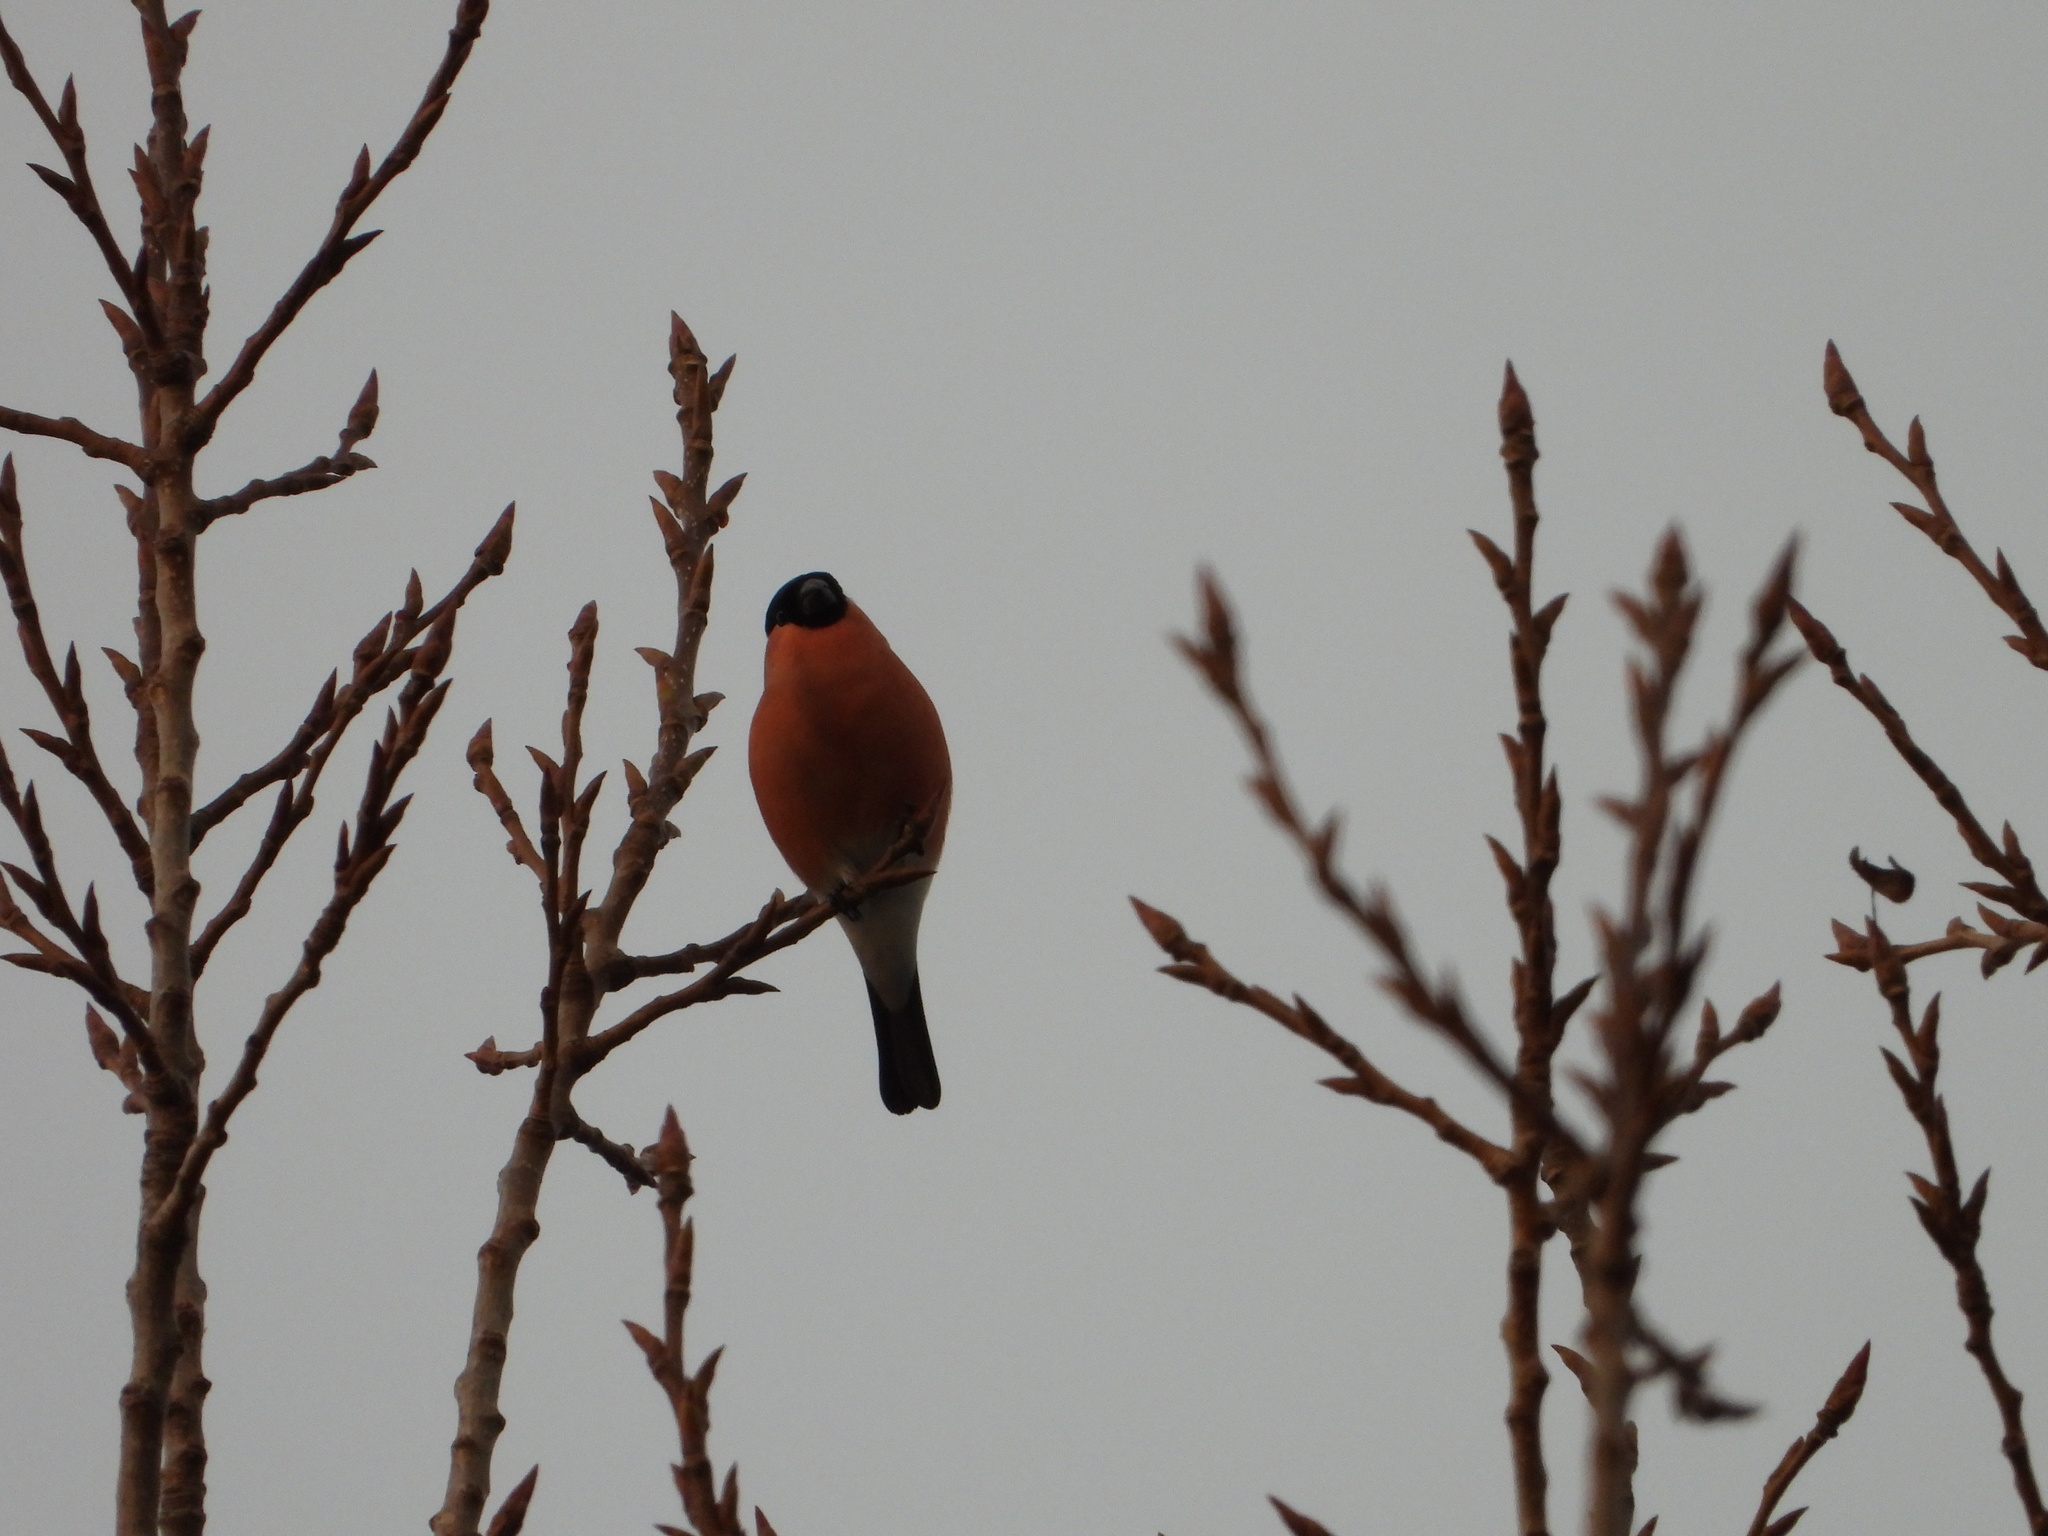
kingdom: Animalia
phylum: Chordata
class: Aves
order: Passeriformes
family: Fringillidae
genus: Pyrrhula
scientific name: Pyrrhula pyrrhula
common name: Eurasian bullfinch
